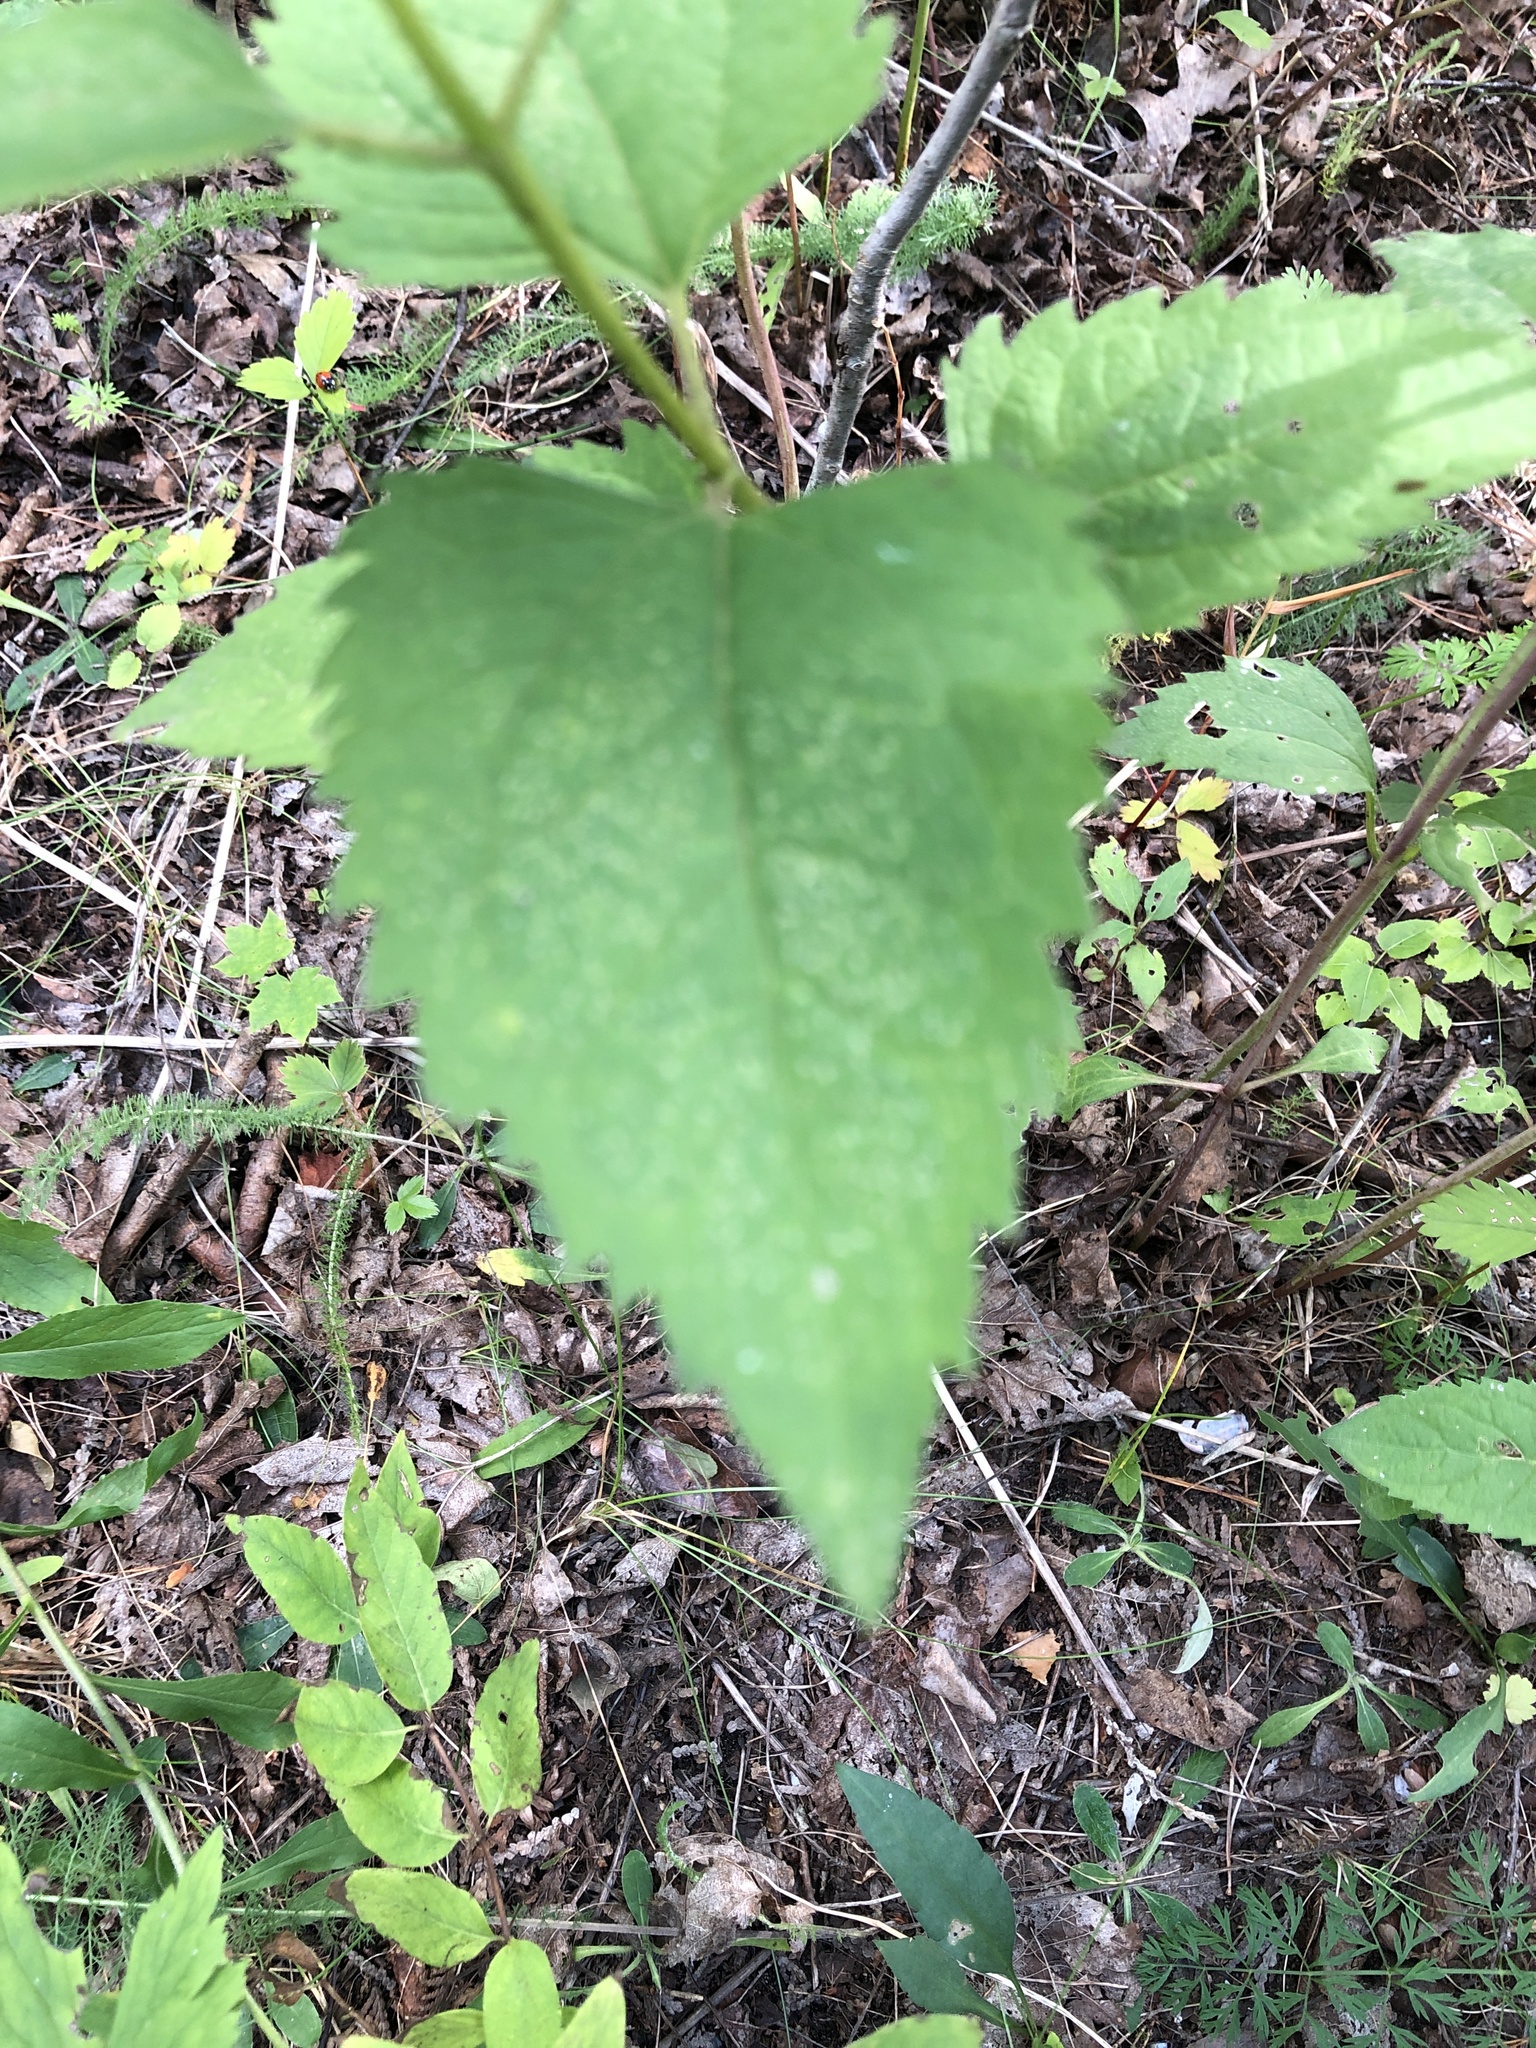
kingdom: Plantae
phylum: Tracheophyta
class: Magnoliopsida
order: Asterales
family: Asteraceae
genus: Heliopsis
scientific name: Heliopsis helianthoides
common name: False sunflower
